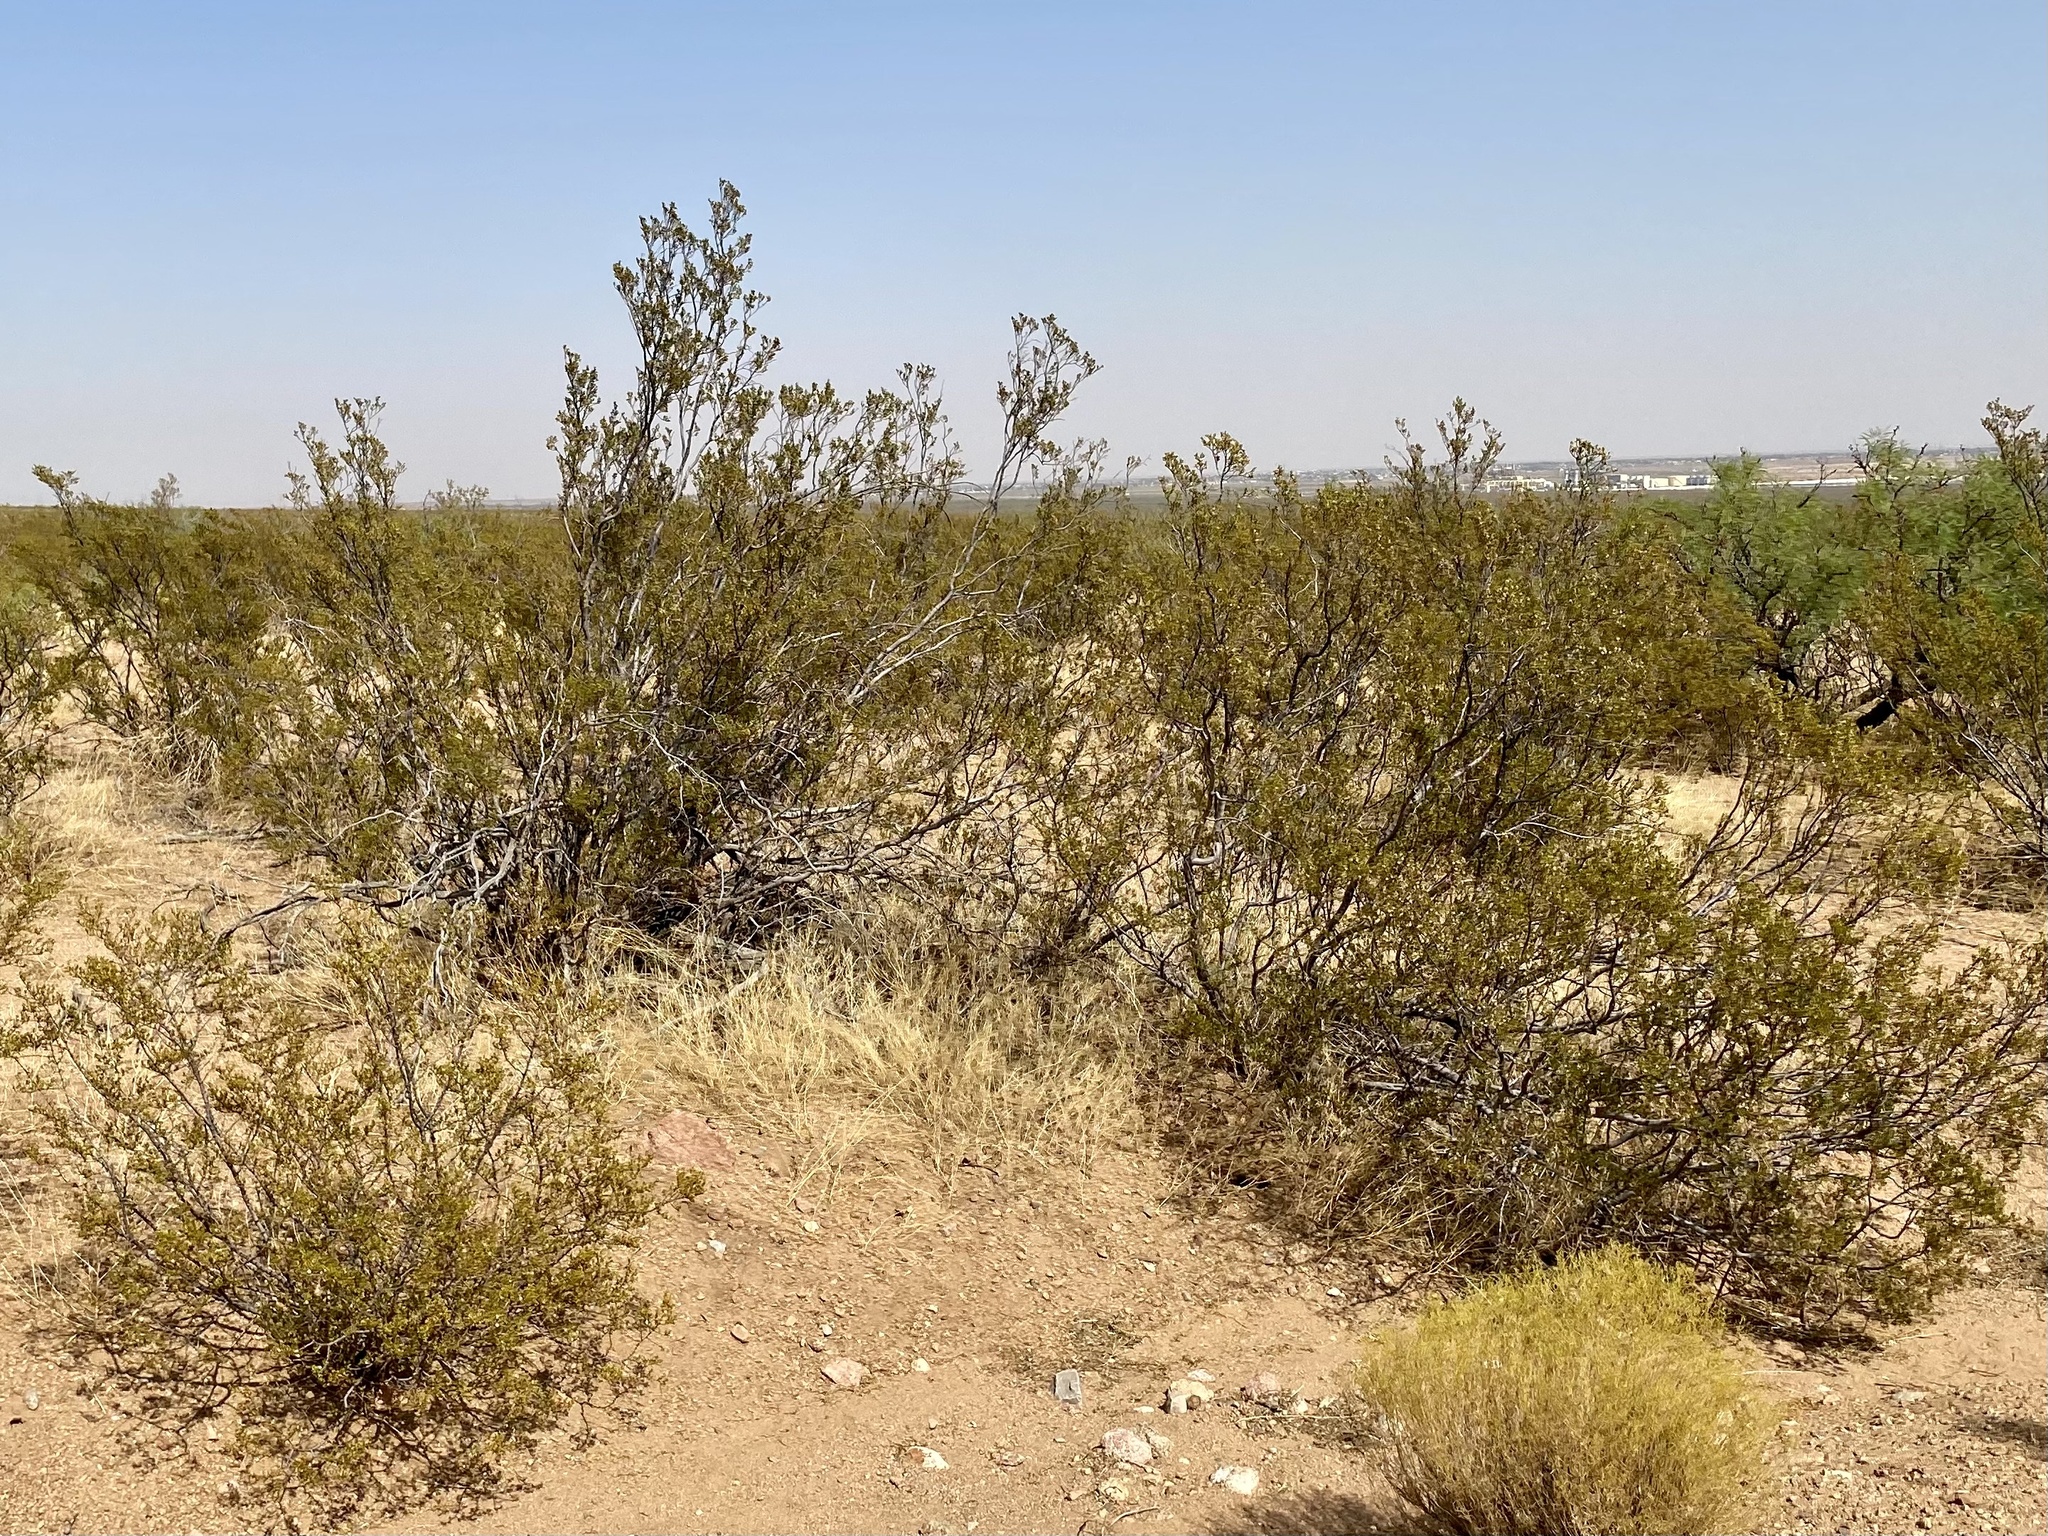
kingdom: Plantae
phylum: Tracheophyta
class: Magnoliopsida
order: Zygophyllales
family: Zygophyllaceae
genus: Larrea
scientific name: Larrea tridentata
